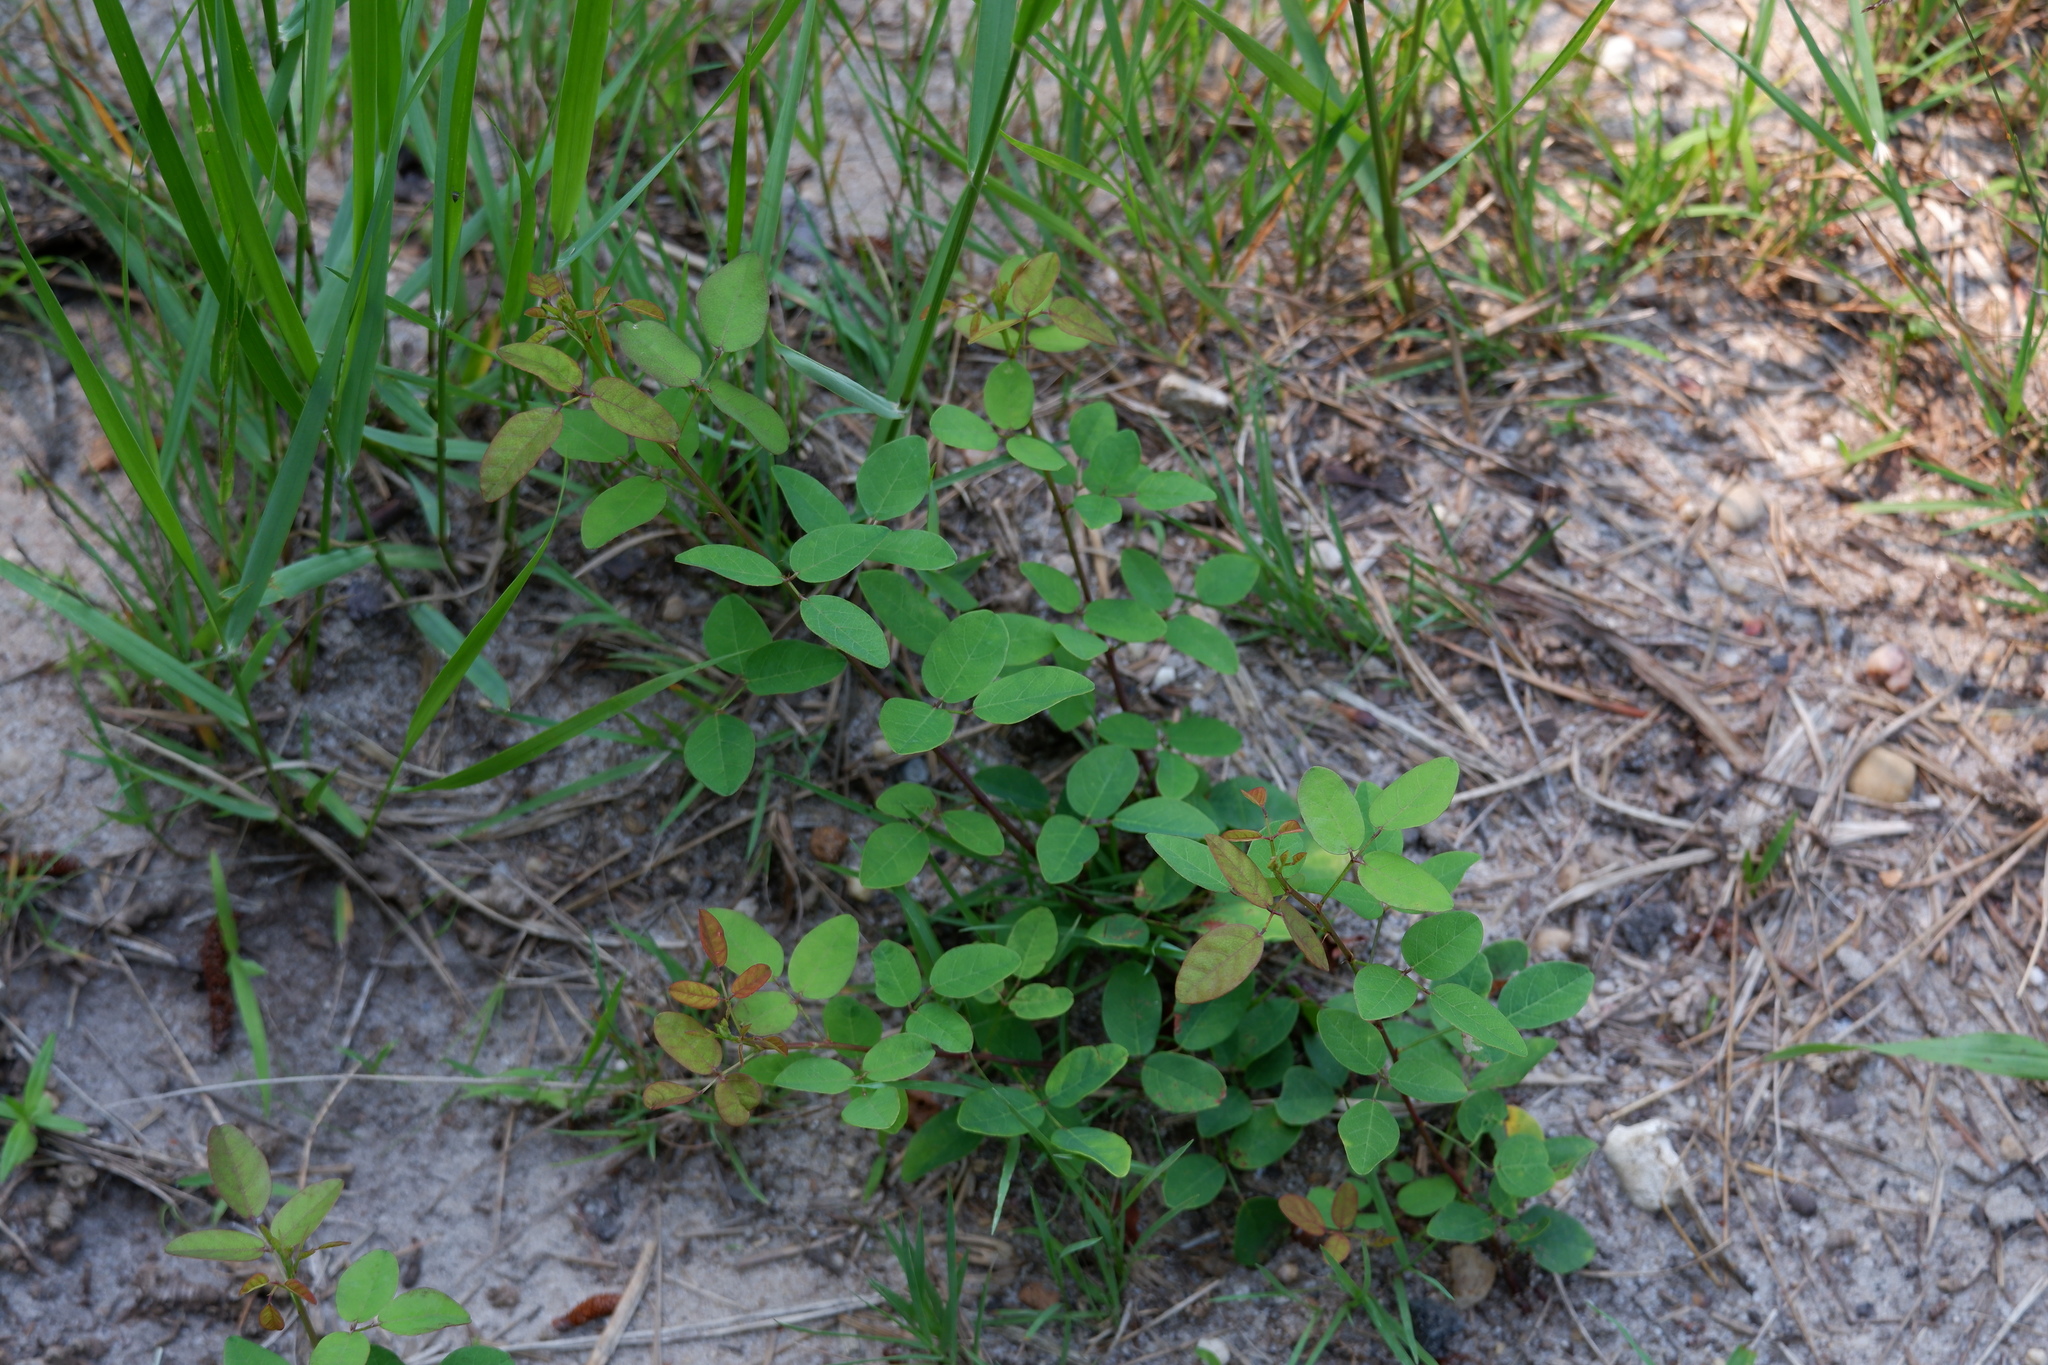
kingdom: Plantae
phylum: Tracheophyta
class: Magnoliopsida
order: Fabales
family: Fabaceae
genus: Desmodium
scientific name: Desmodium marilandicum
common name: Maryland tick-trefoil
